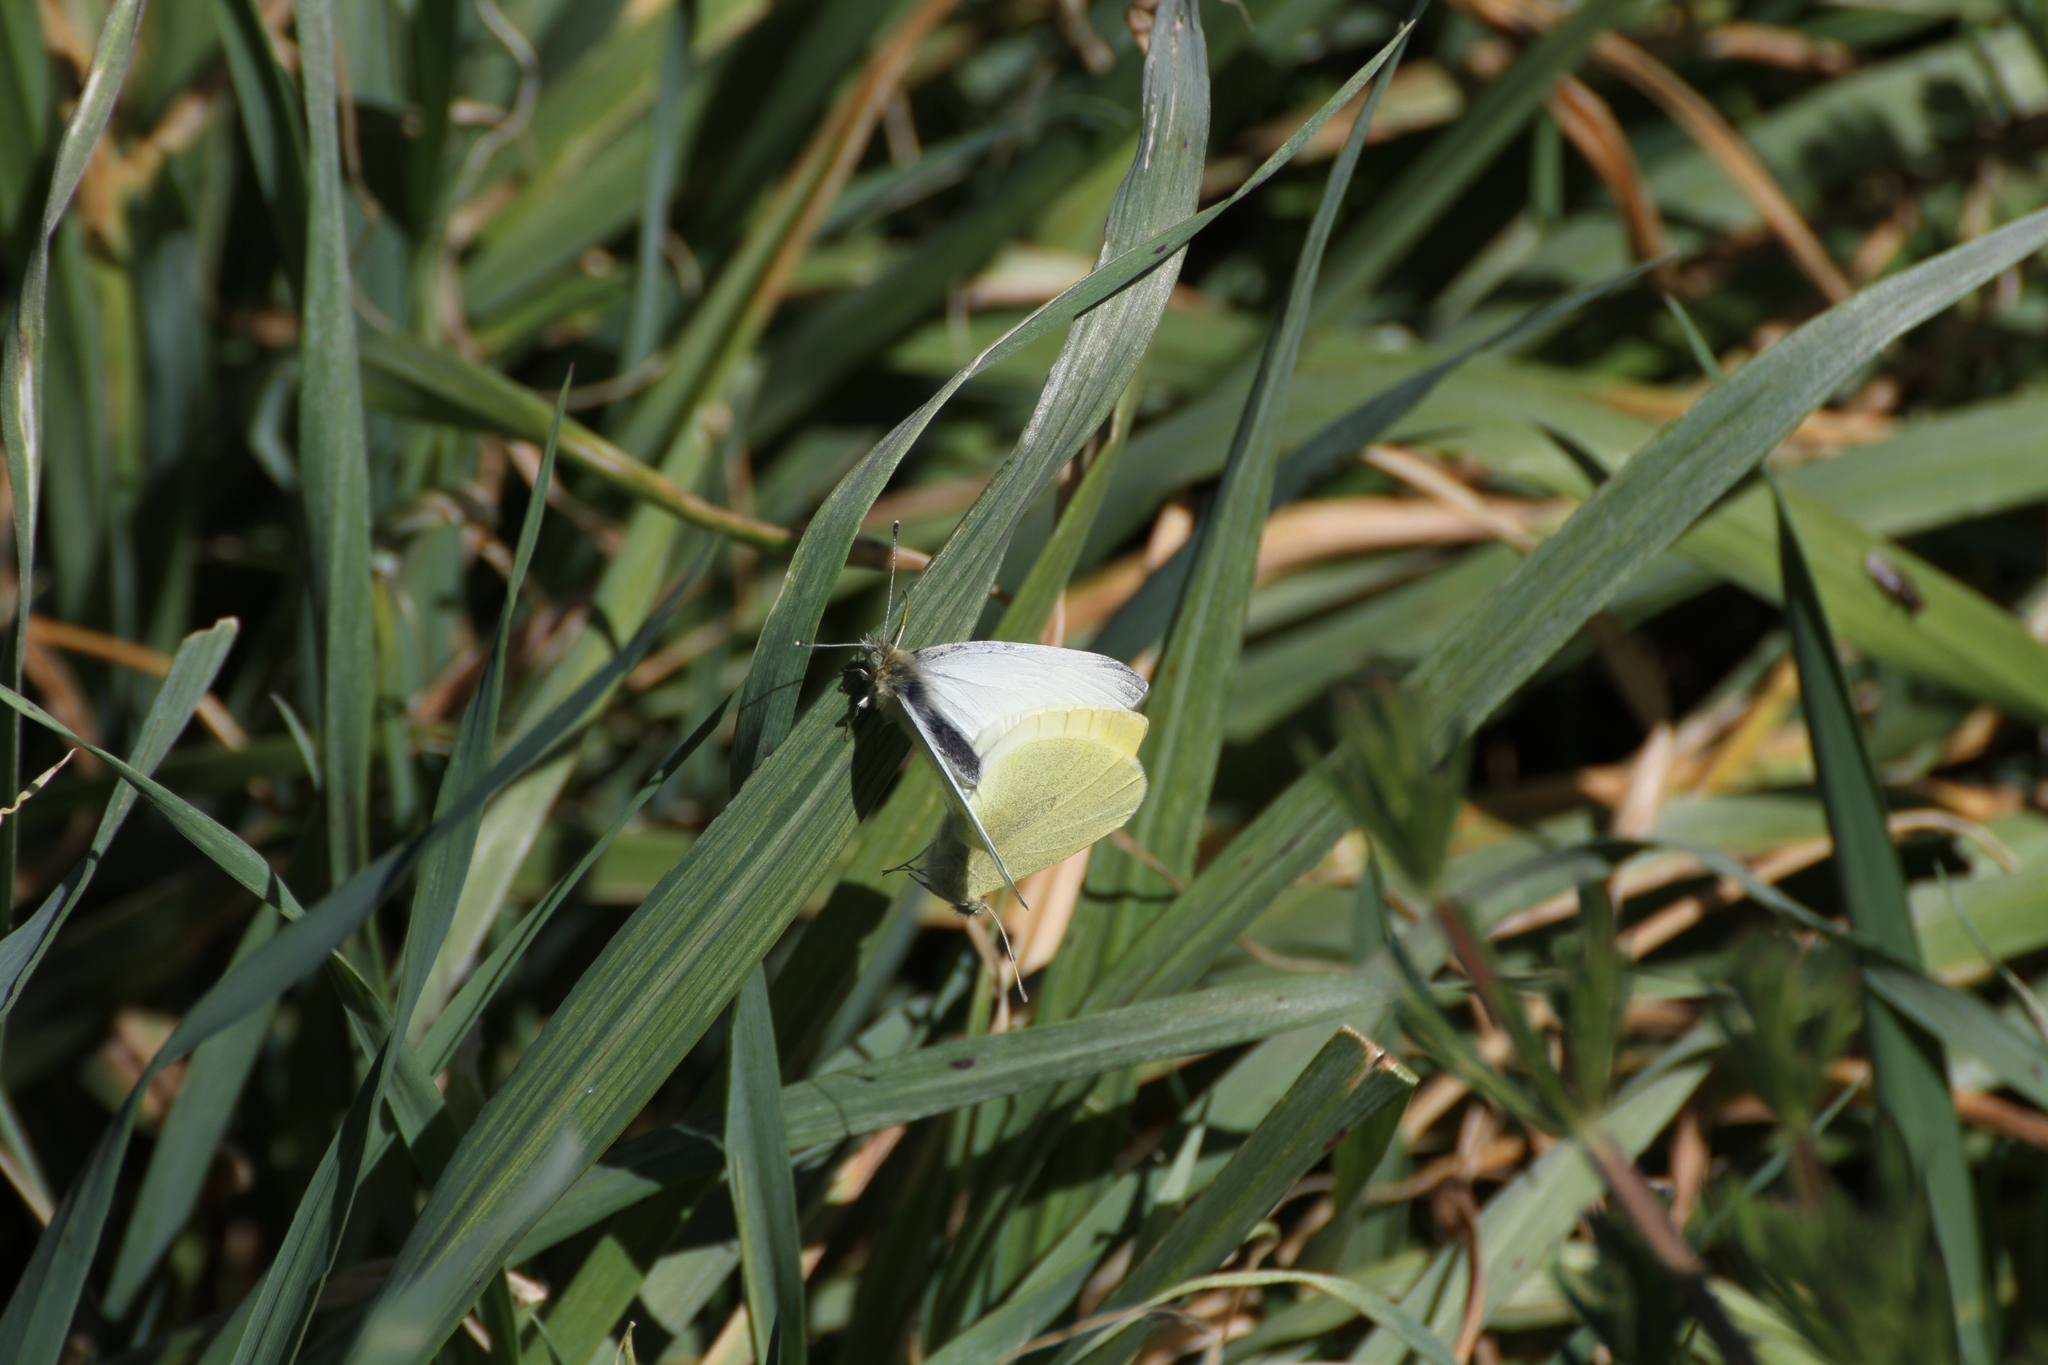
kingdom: Animalia
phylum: Arthropoda
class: Insecta
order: Lepidoptera
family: Pieridae
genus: Pieris
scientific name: Pieris rapae
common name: Small white
